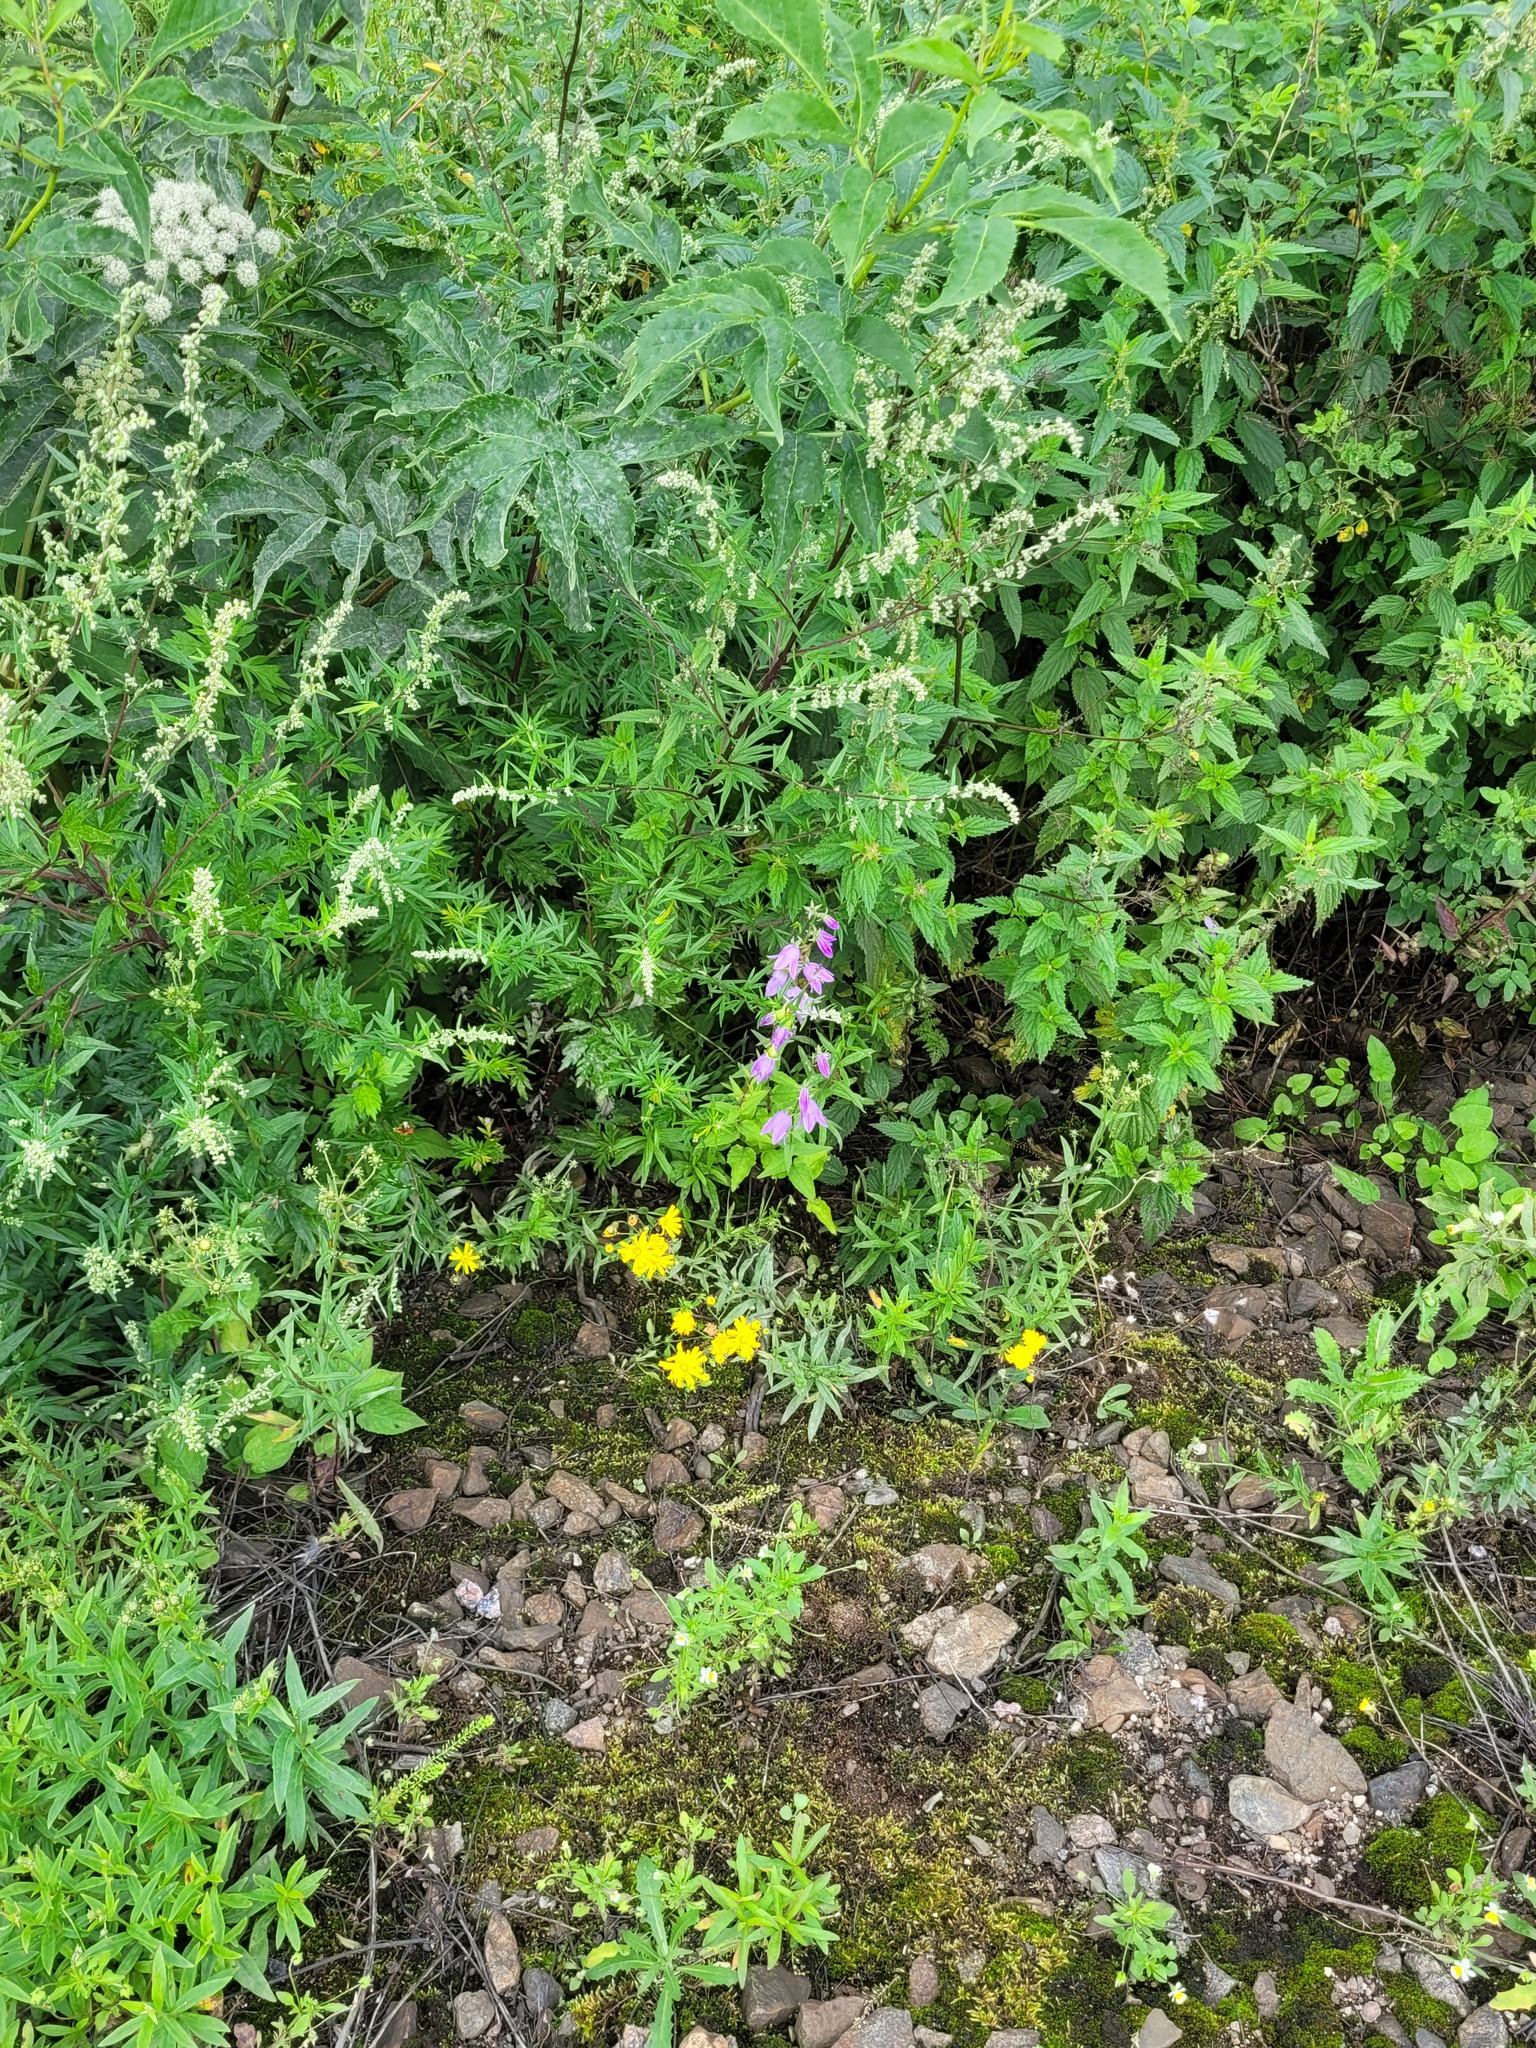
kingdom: Plantae
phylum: Tracheophyta
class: Magnoliopsida
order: Asterales
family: Campanulaceae
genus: Campanula
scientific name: Campanula rapunculoides
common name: Creeping bellflower
